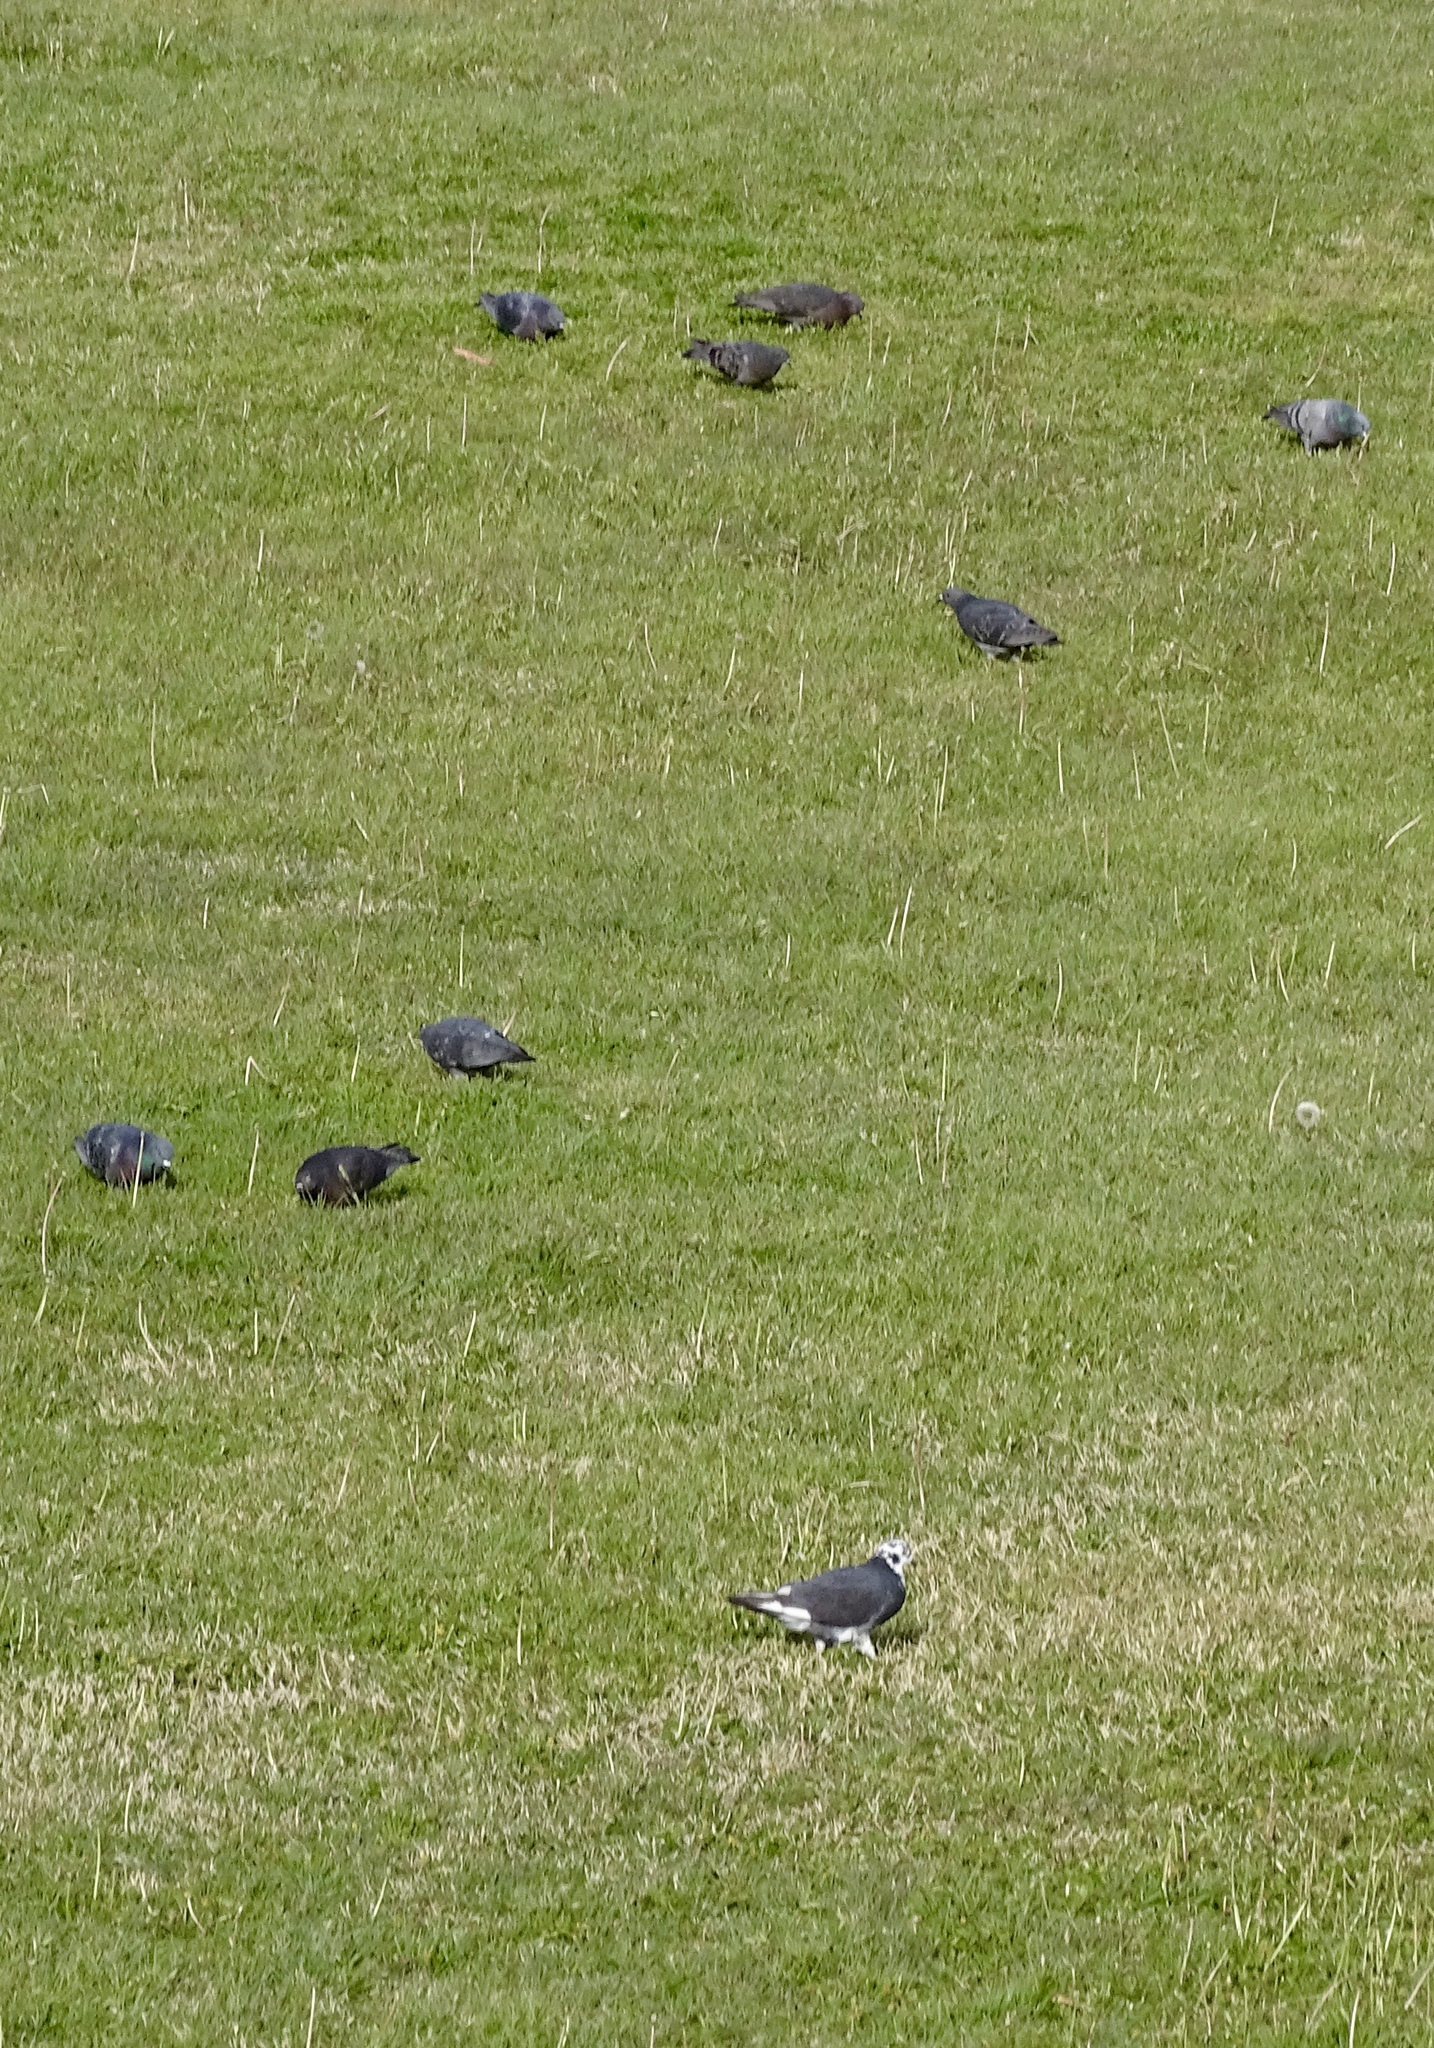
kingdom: Animalia
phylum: Chordata
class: Aves
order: Columbiformes
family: Columbidae
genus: Columba
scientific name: Columba livia
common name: Rock pigeon
